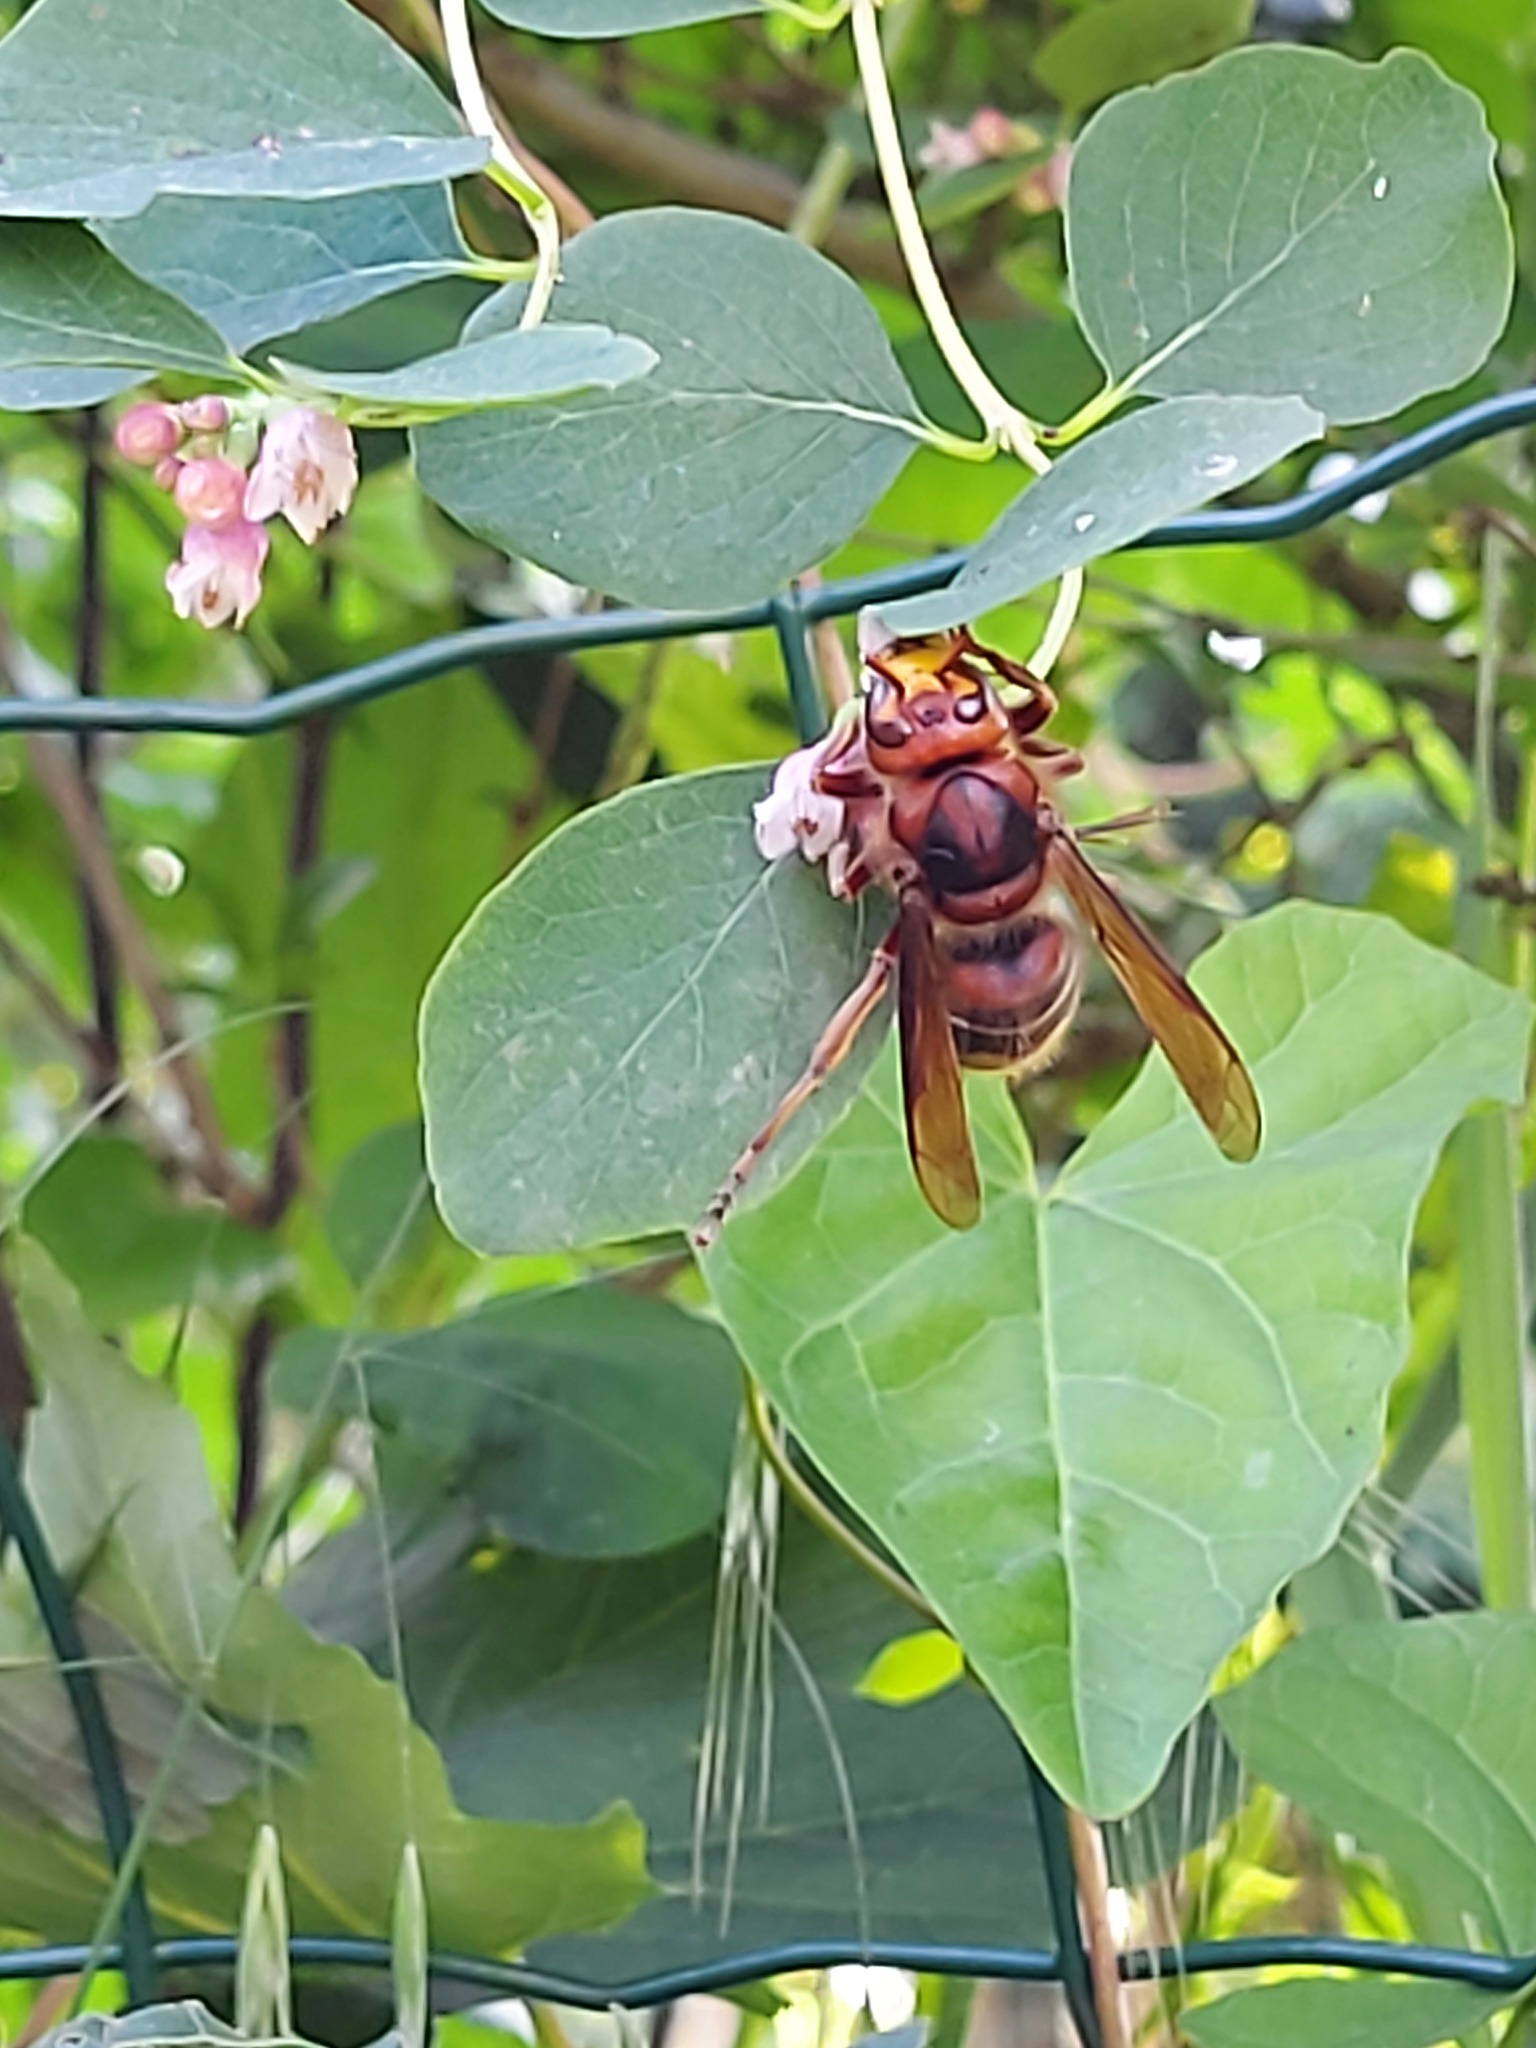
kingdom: Animalia
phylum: Arthropoda
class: Insecta
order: Hymenoptera
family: Vespidae
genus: Vespa
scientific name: Vespa crabro
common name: Hornet
